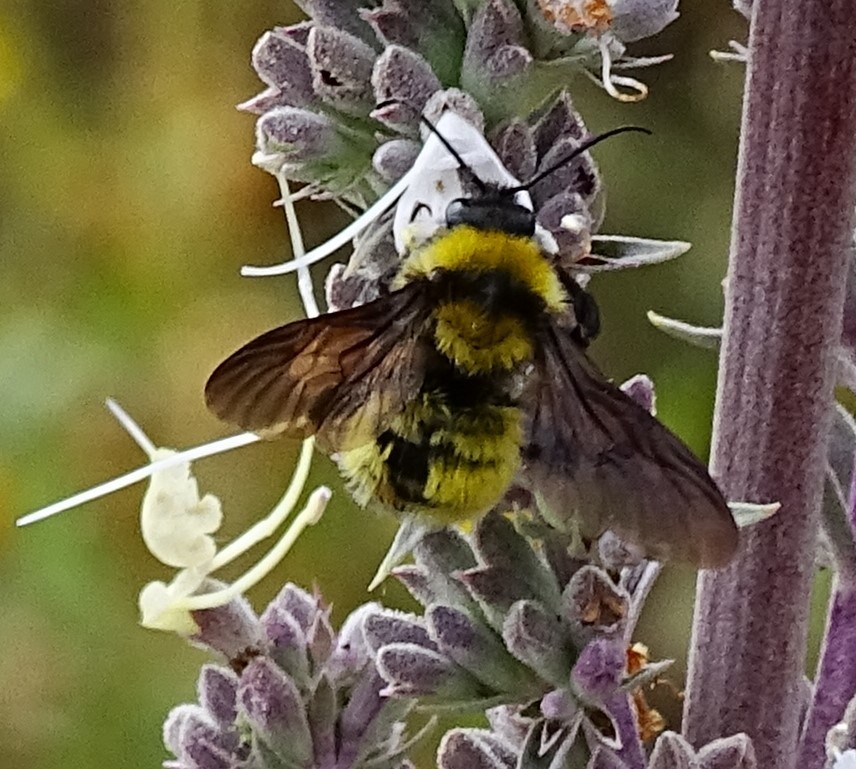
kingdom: Animalia
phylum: Arthropoda
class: Insecta
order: Hymenoptera
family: Apidae
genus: Bombus
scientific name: Bombus sonorus
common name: Sonoran bumble bee
